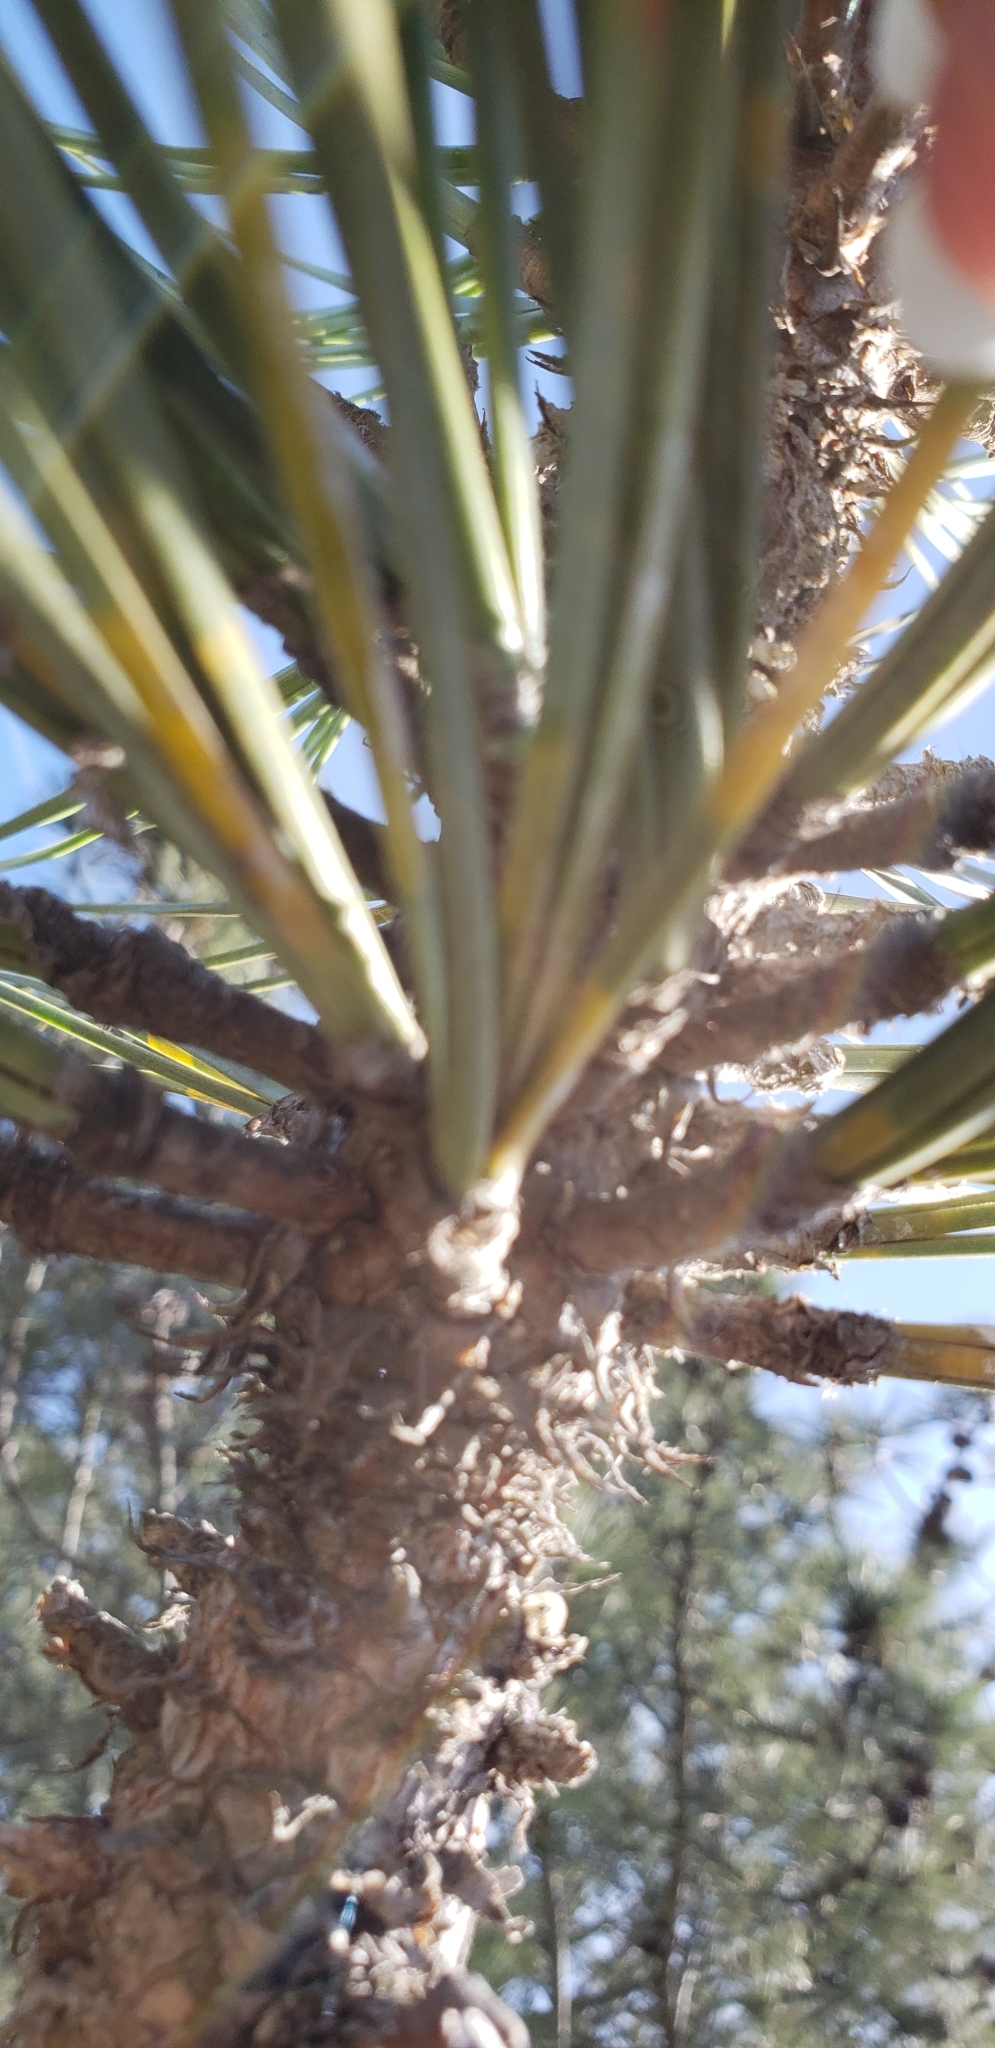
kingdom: Plantae
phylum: Tracheophyta
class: Pinopsida
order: Pinales
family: Pinaceae
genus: Pinus
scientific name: Pinus torreyana
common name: Torrey pine
